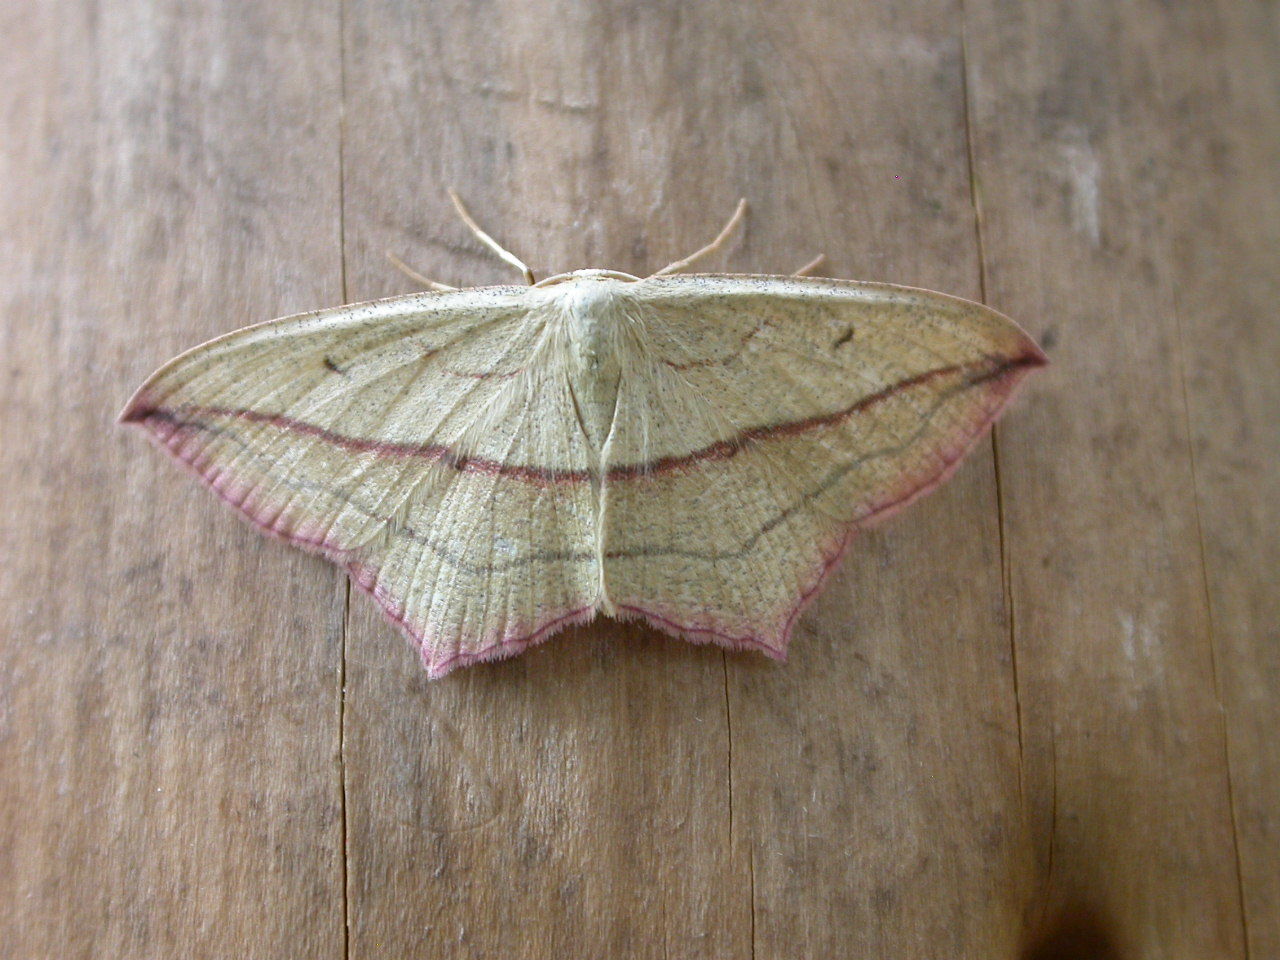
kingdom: Animalia
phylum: Arthropoda
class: Insecta
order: Lepidoptera
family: Geometridae
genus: Timandra
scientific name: Timandra comae
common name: Blood-vein
